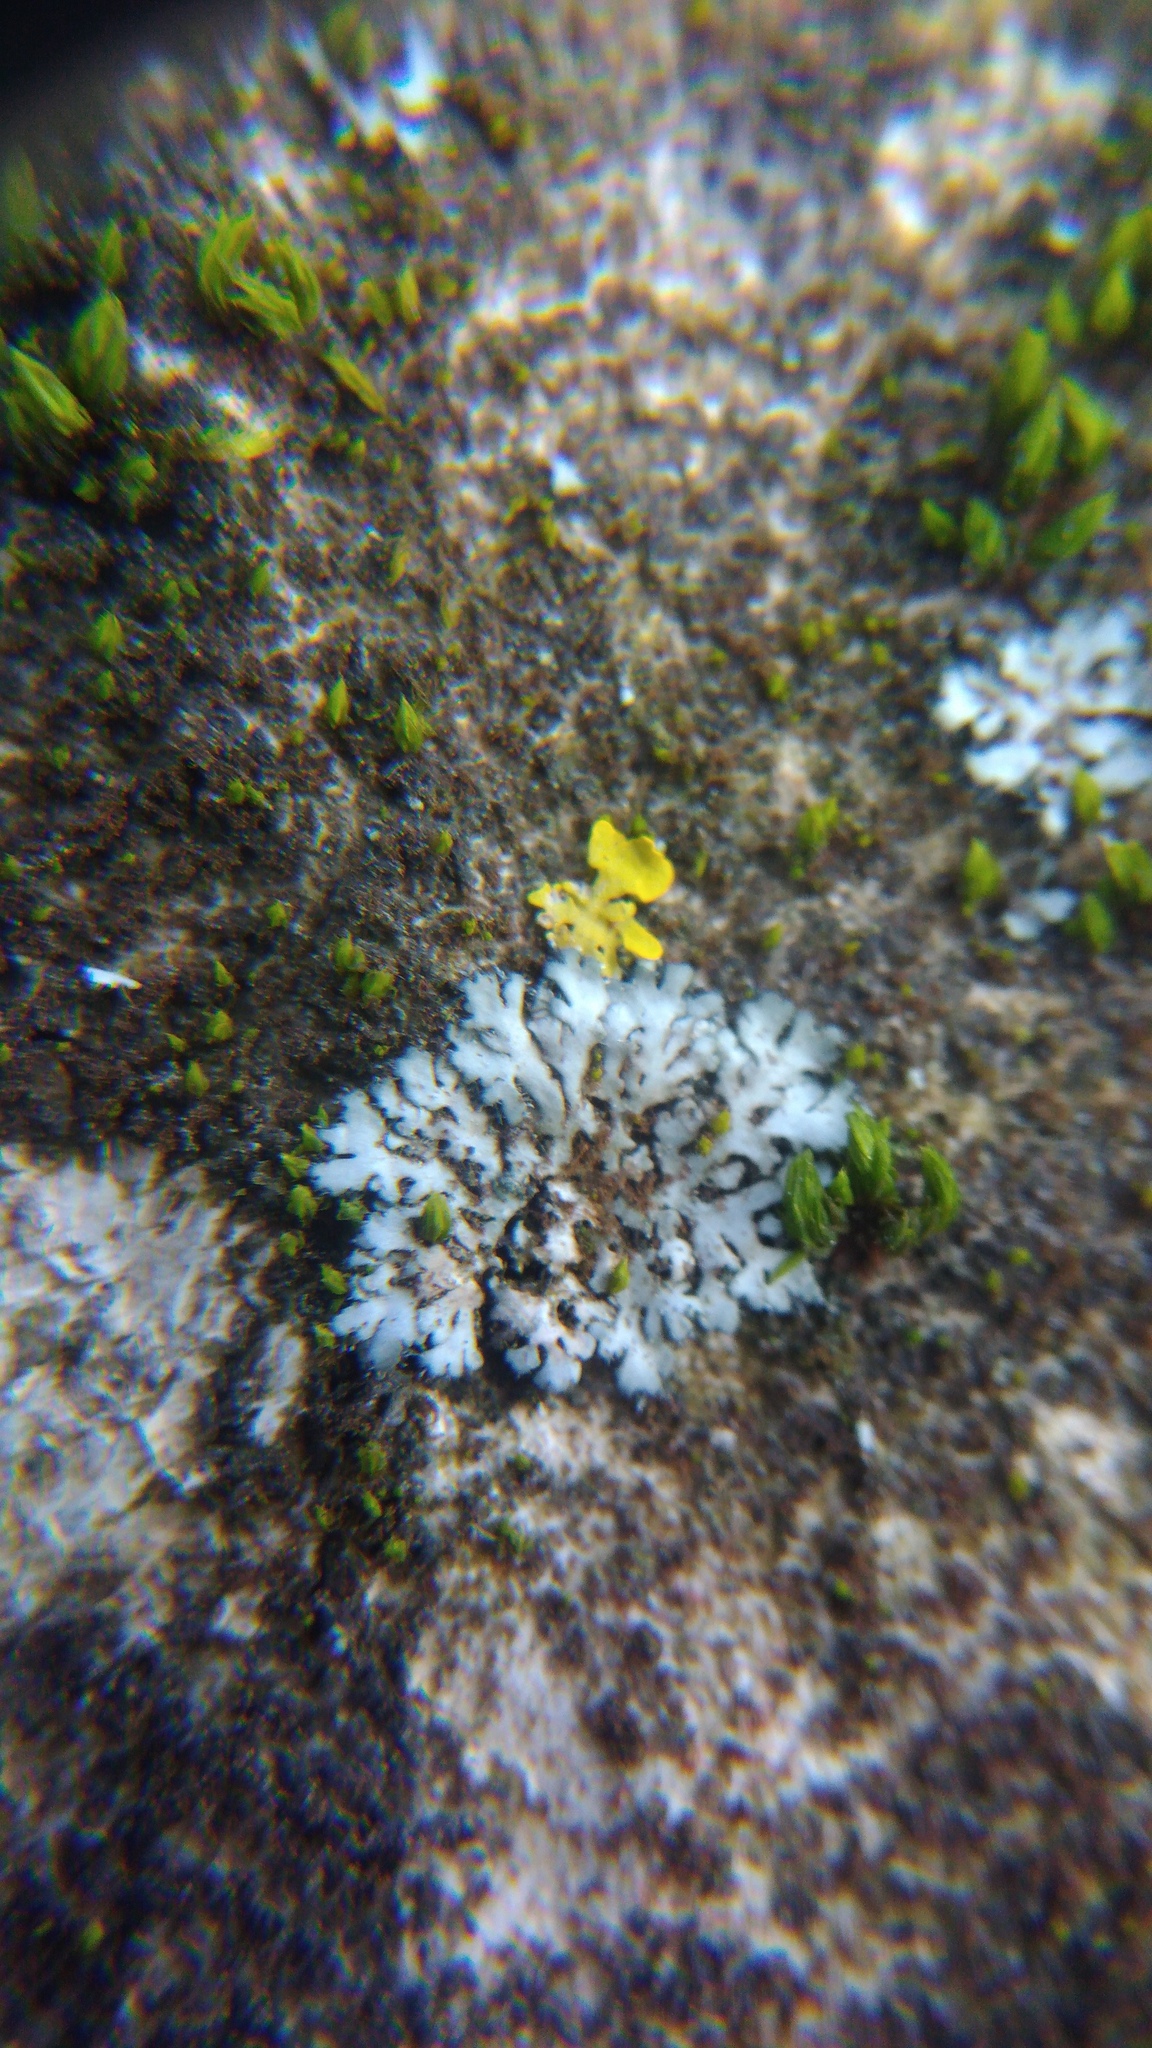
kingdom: Fungi
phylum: Ascomycota
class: Lecanoromycetes
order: Caliciales
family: Physciaceae
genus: Phaeophyscia
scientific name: Phaeophyscia orbicularis
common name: Mealy shadow lichen
